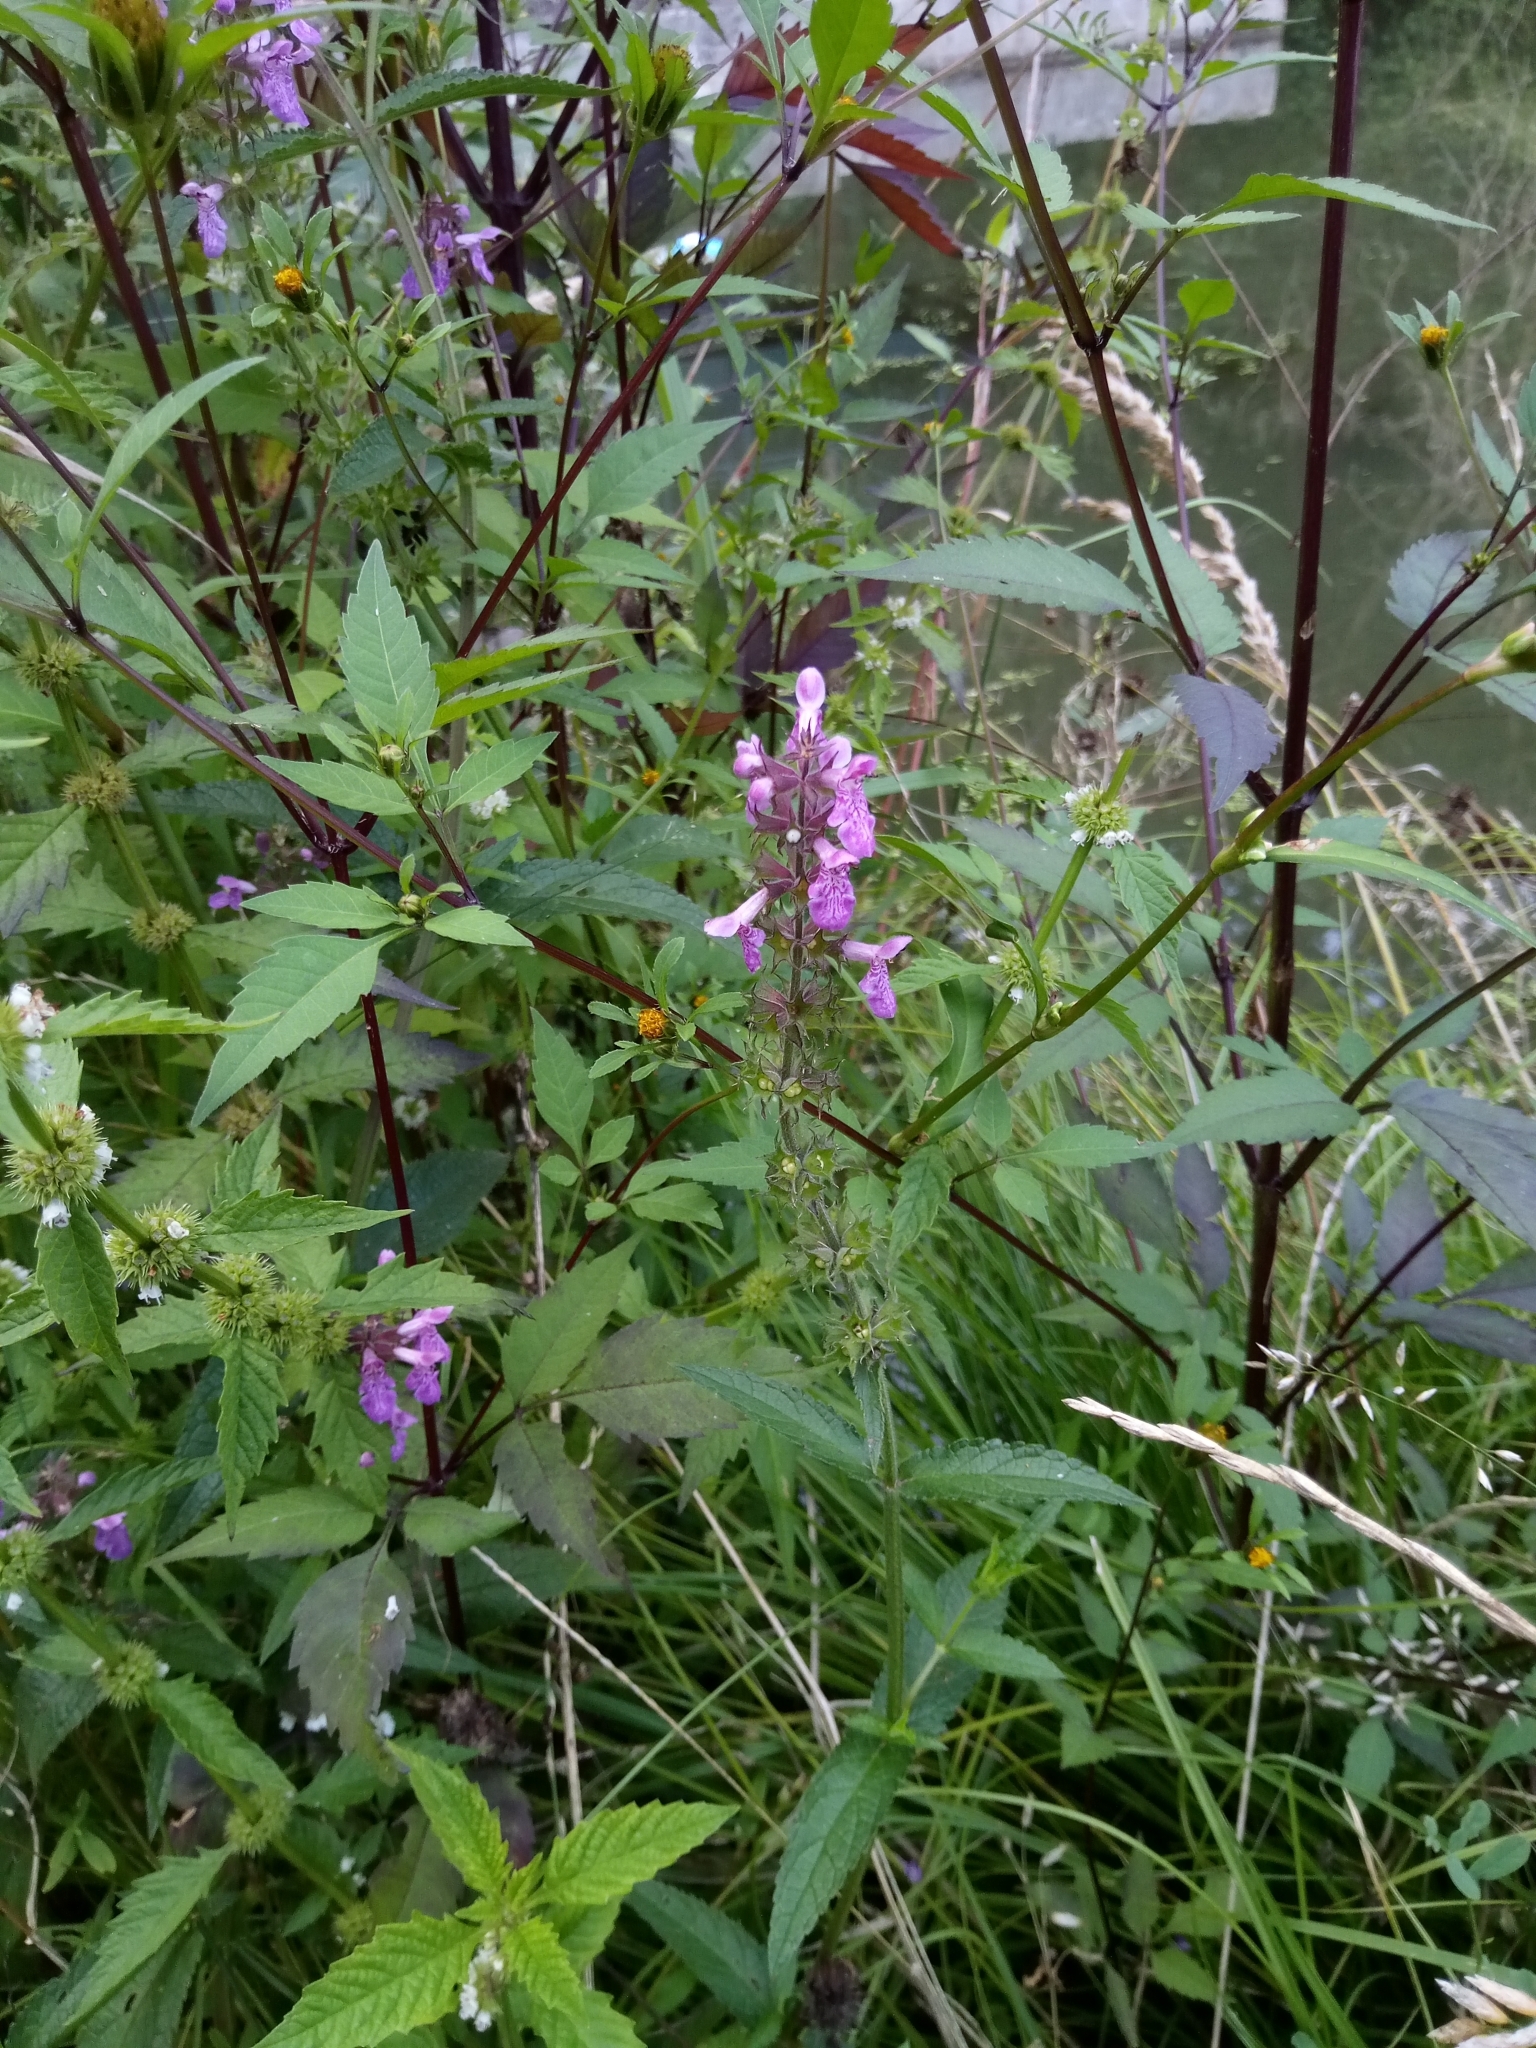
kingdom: Plantae
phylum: Tracheophyta
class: Magnoliopsida
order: Lamiales
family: Lamiaceae
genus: Stachys
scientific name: Stachys palustris
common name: Marsh woundwort
